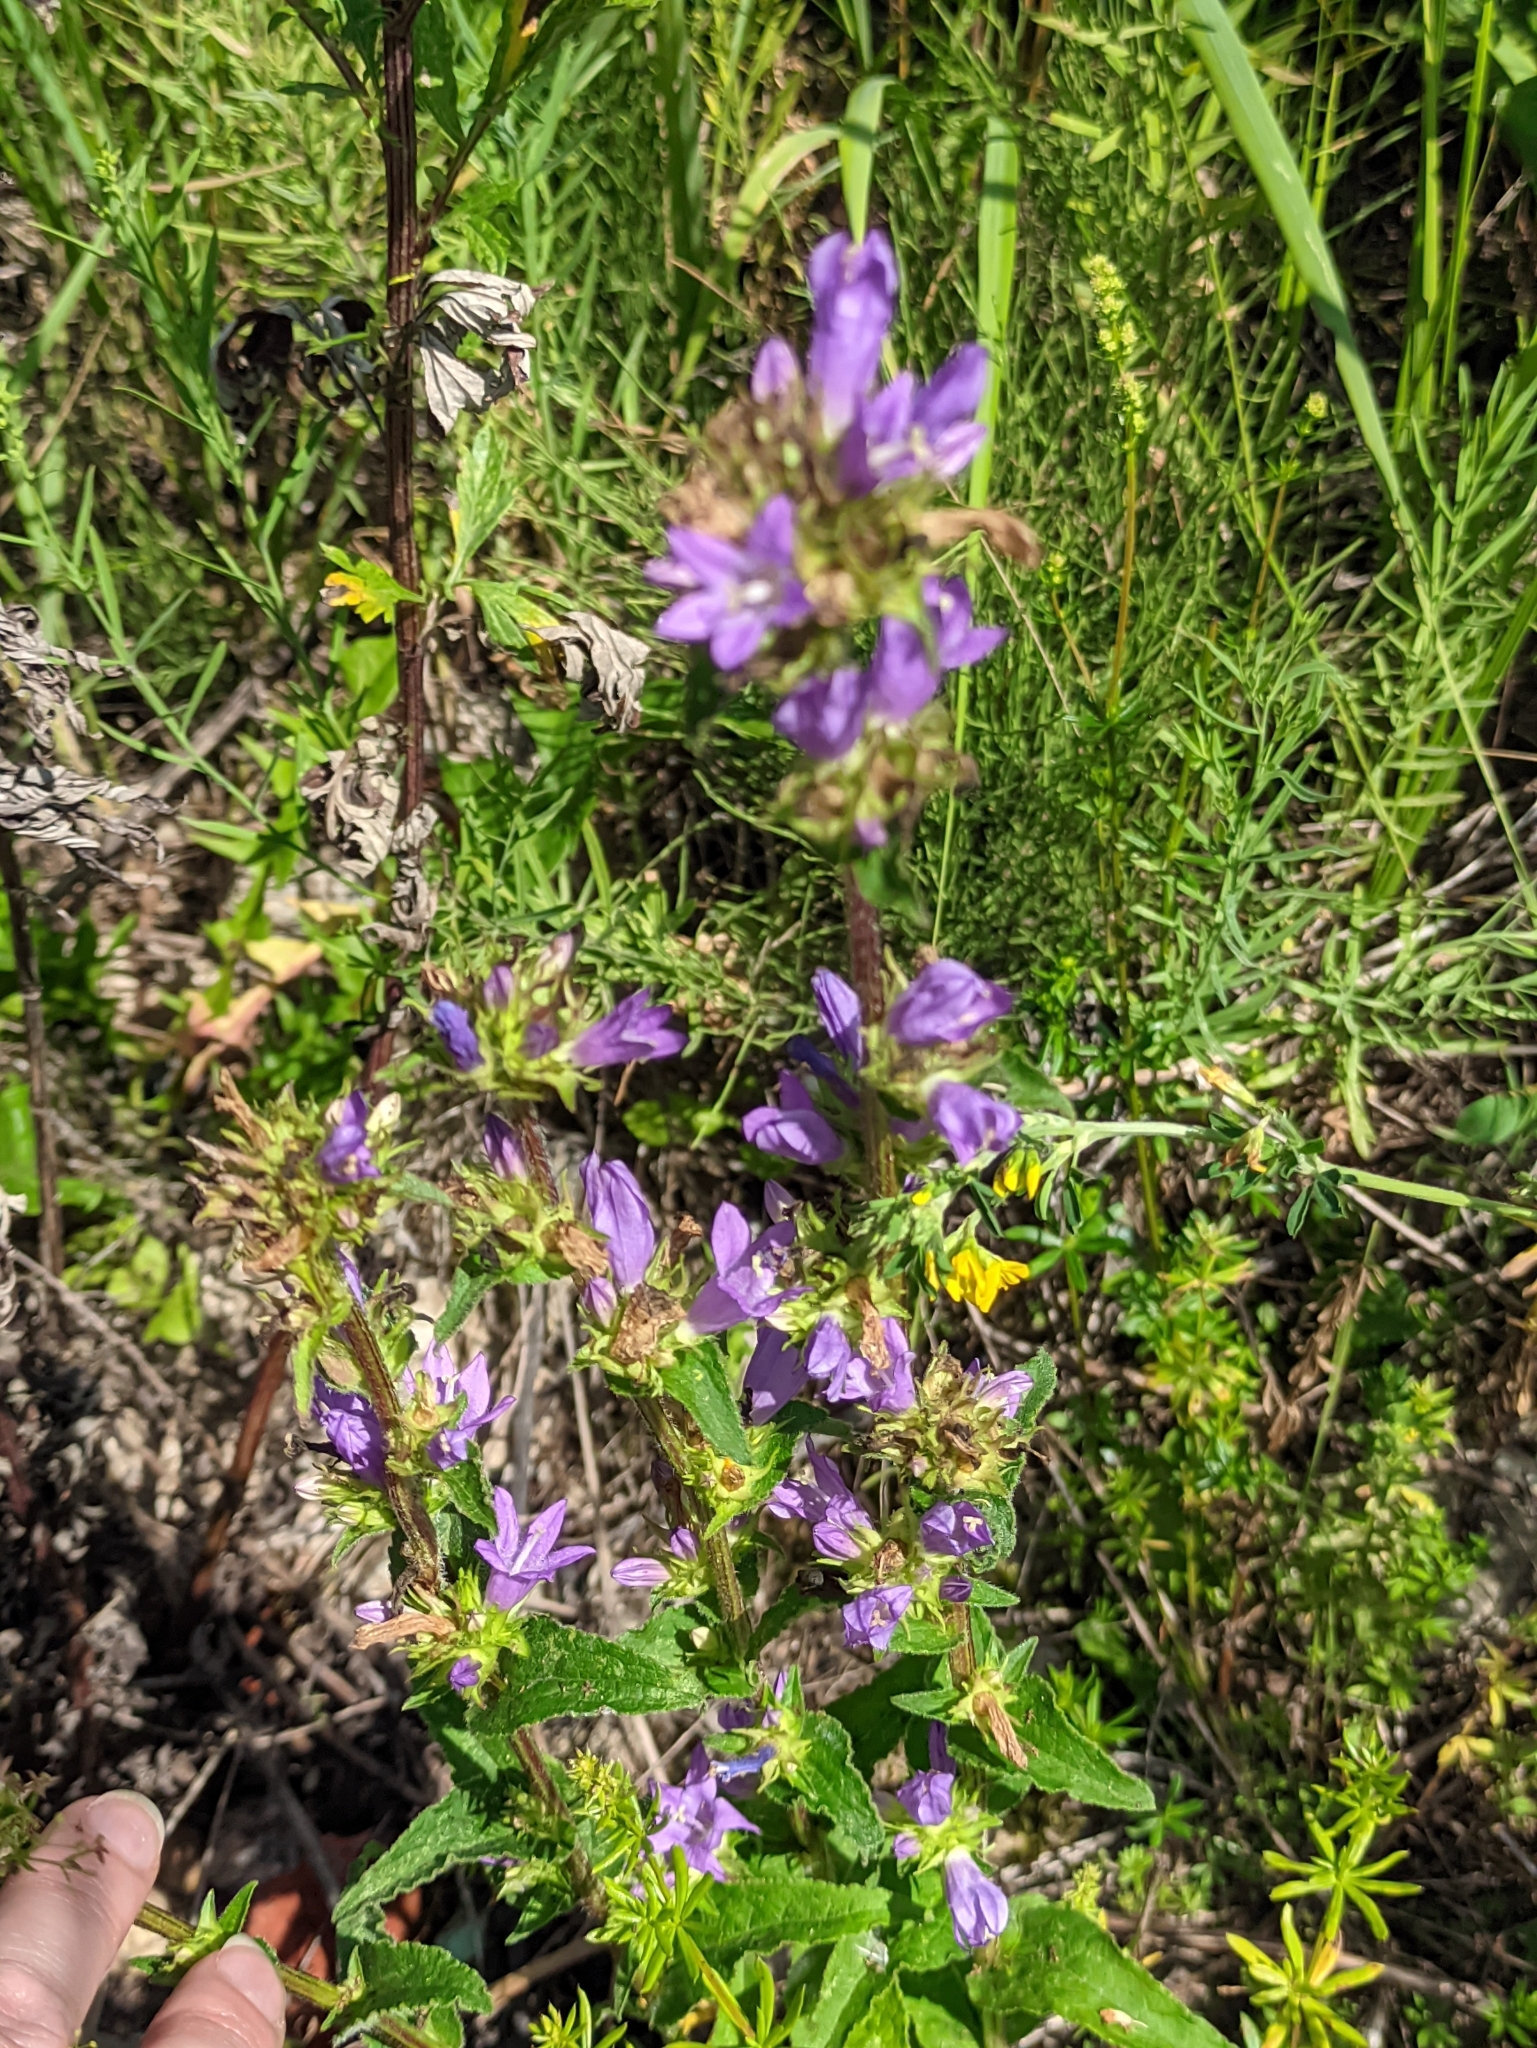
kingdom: Plantae
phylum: Tracheophyta
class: Magnoliopsida
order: Asterales
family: Campanulaceae
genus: Campanula
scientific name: Campanula glomerata
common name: Clustered bellflower
